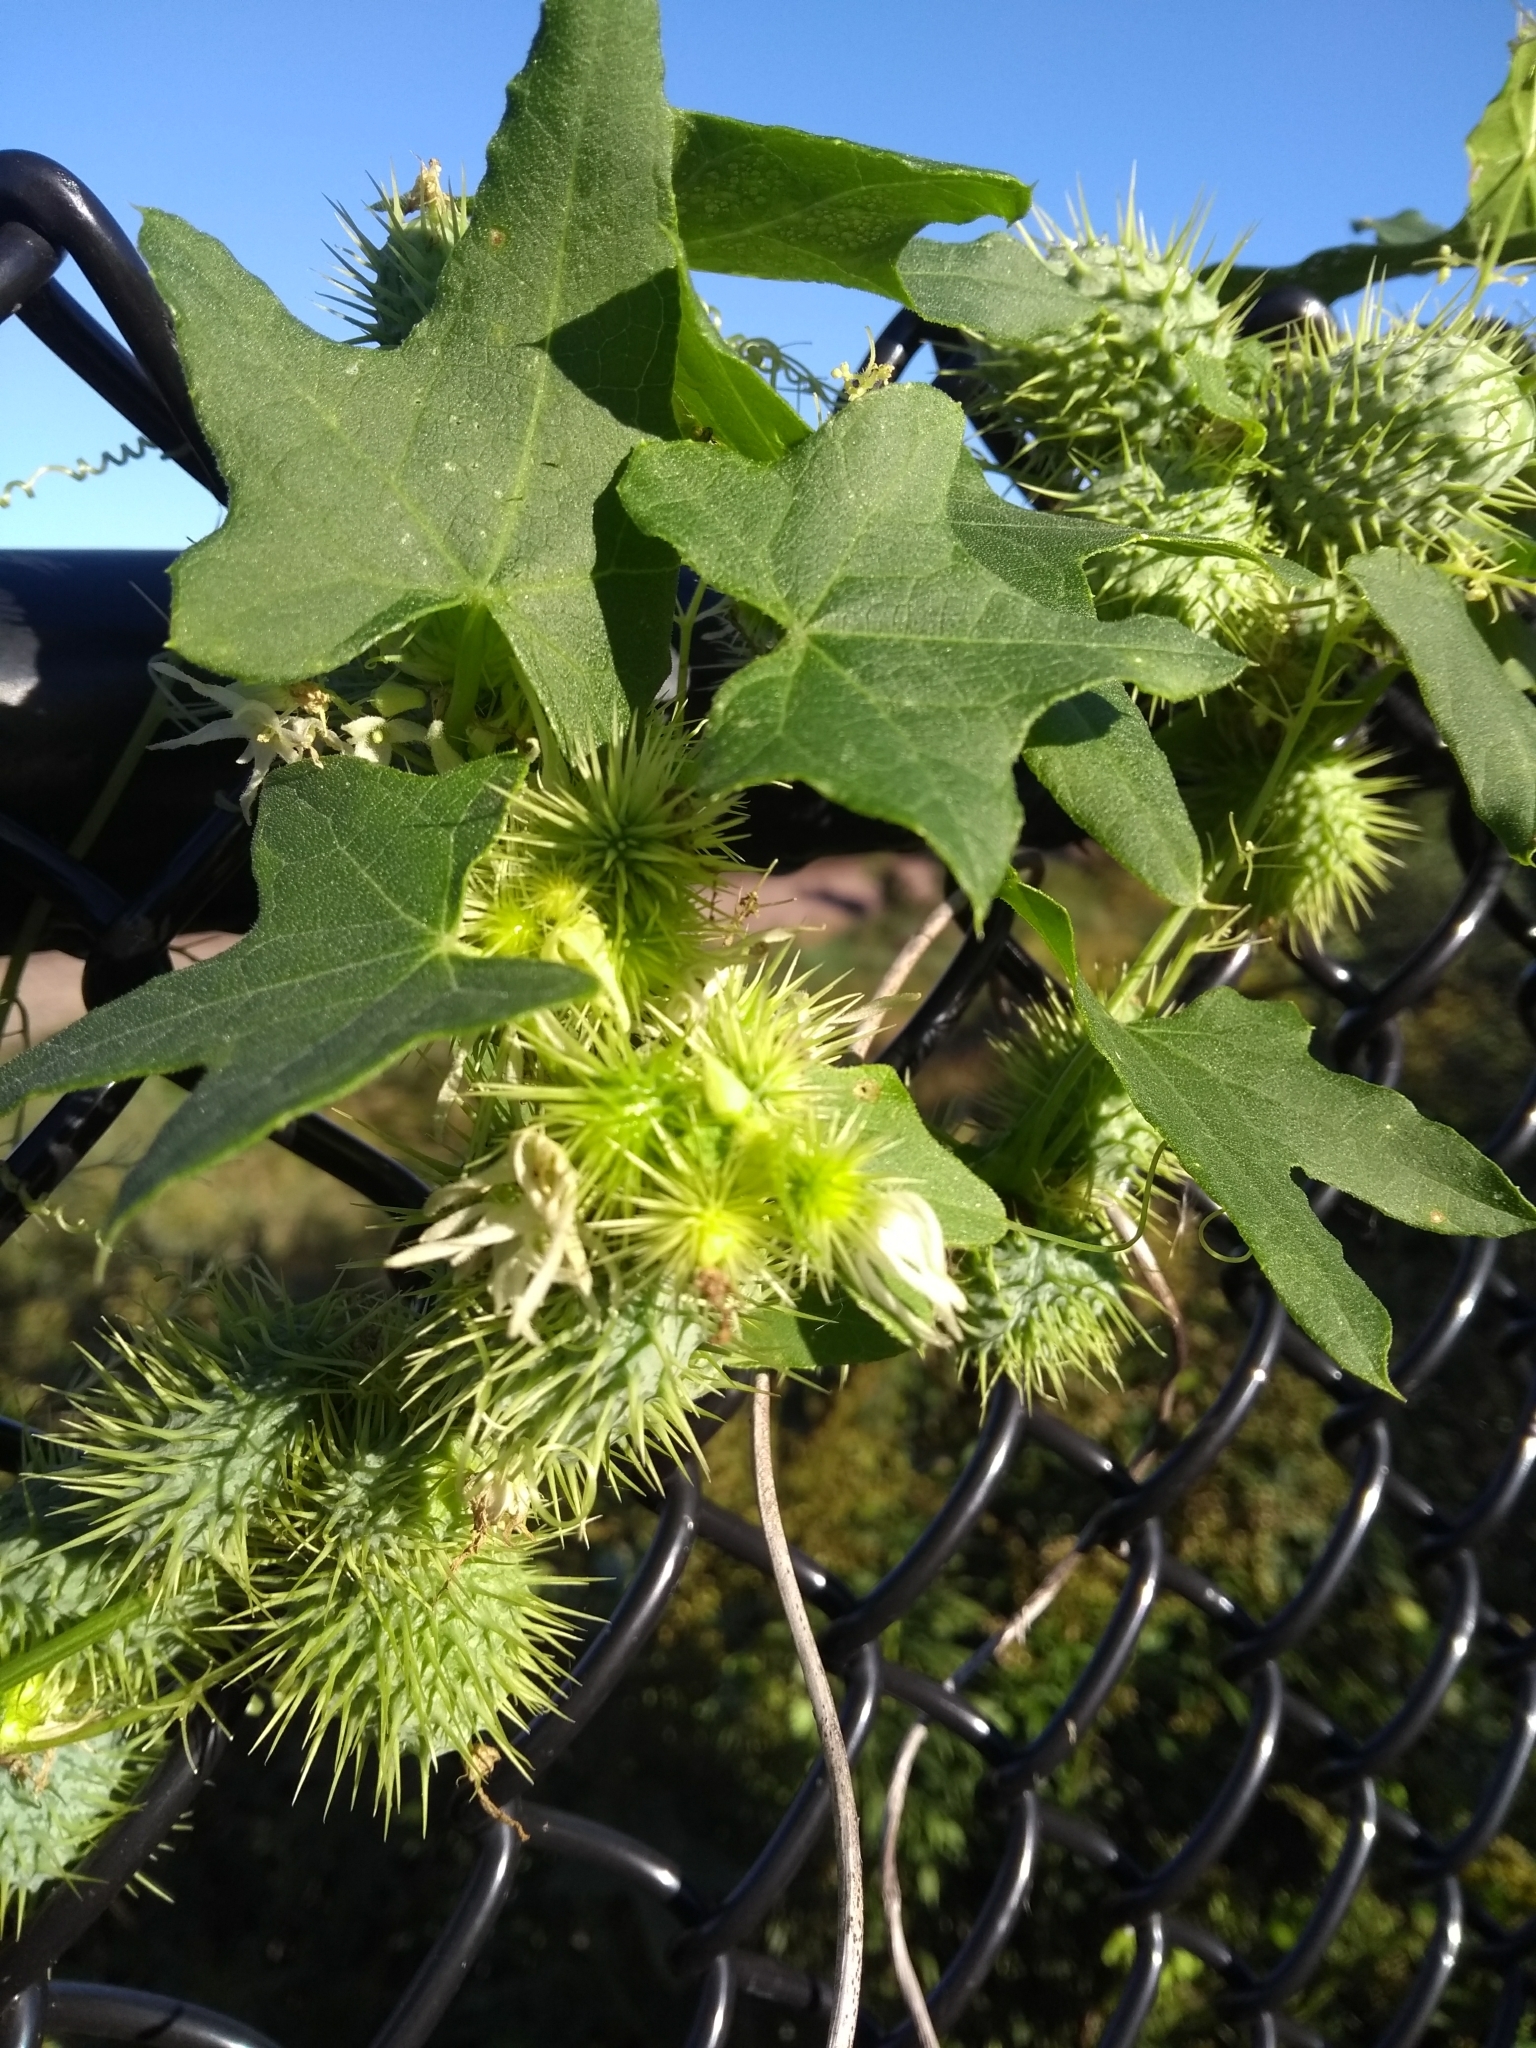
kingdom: Plantae
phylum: Tracheophyta
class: Magnoliopsida
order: Cucurbitales
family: Cucurbitaceae
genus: Echinocystis
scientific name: Echinocystis lobata
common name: Wild cucumber
